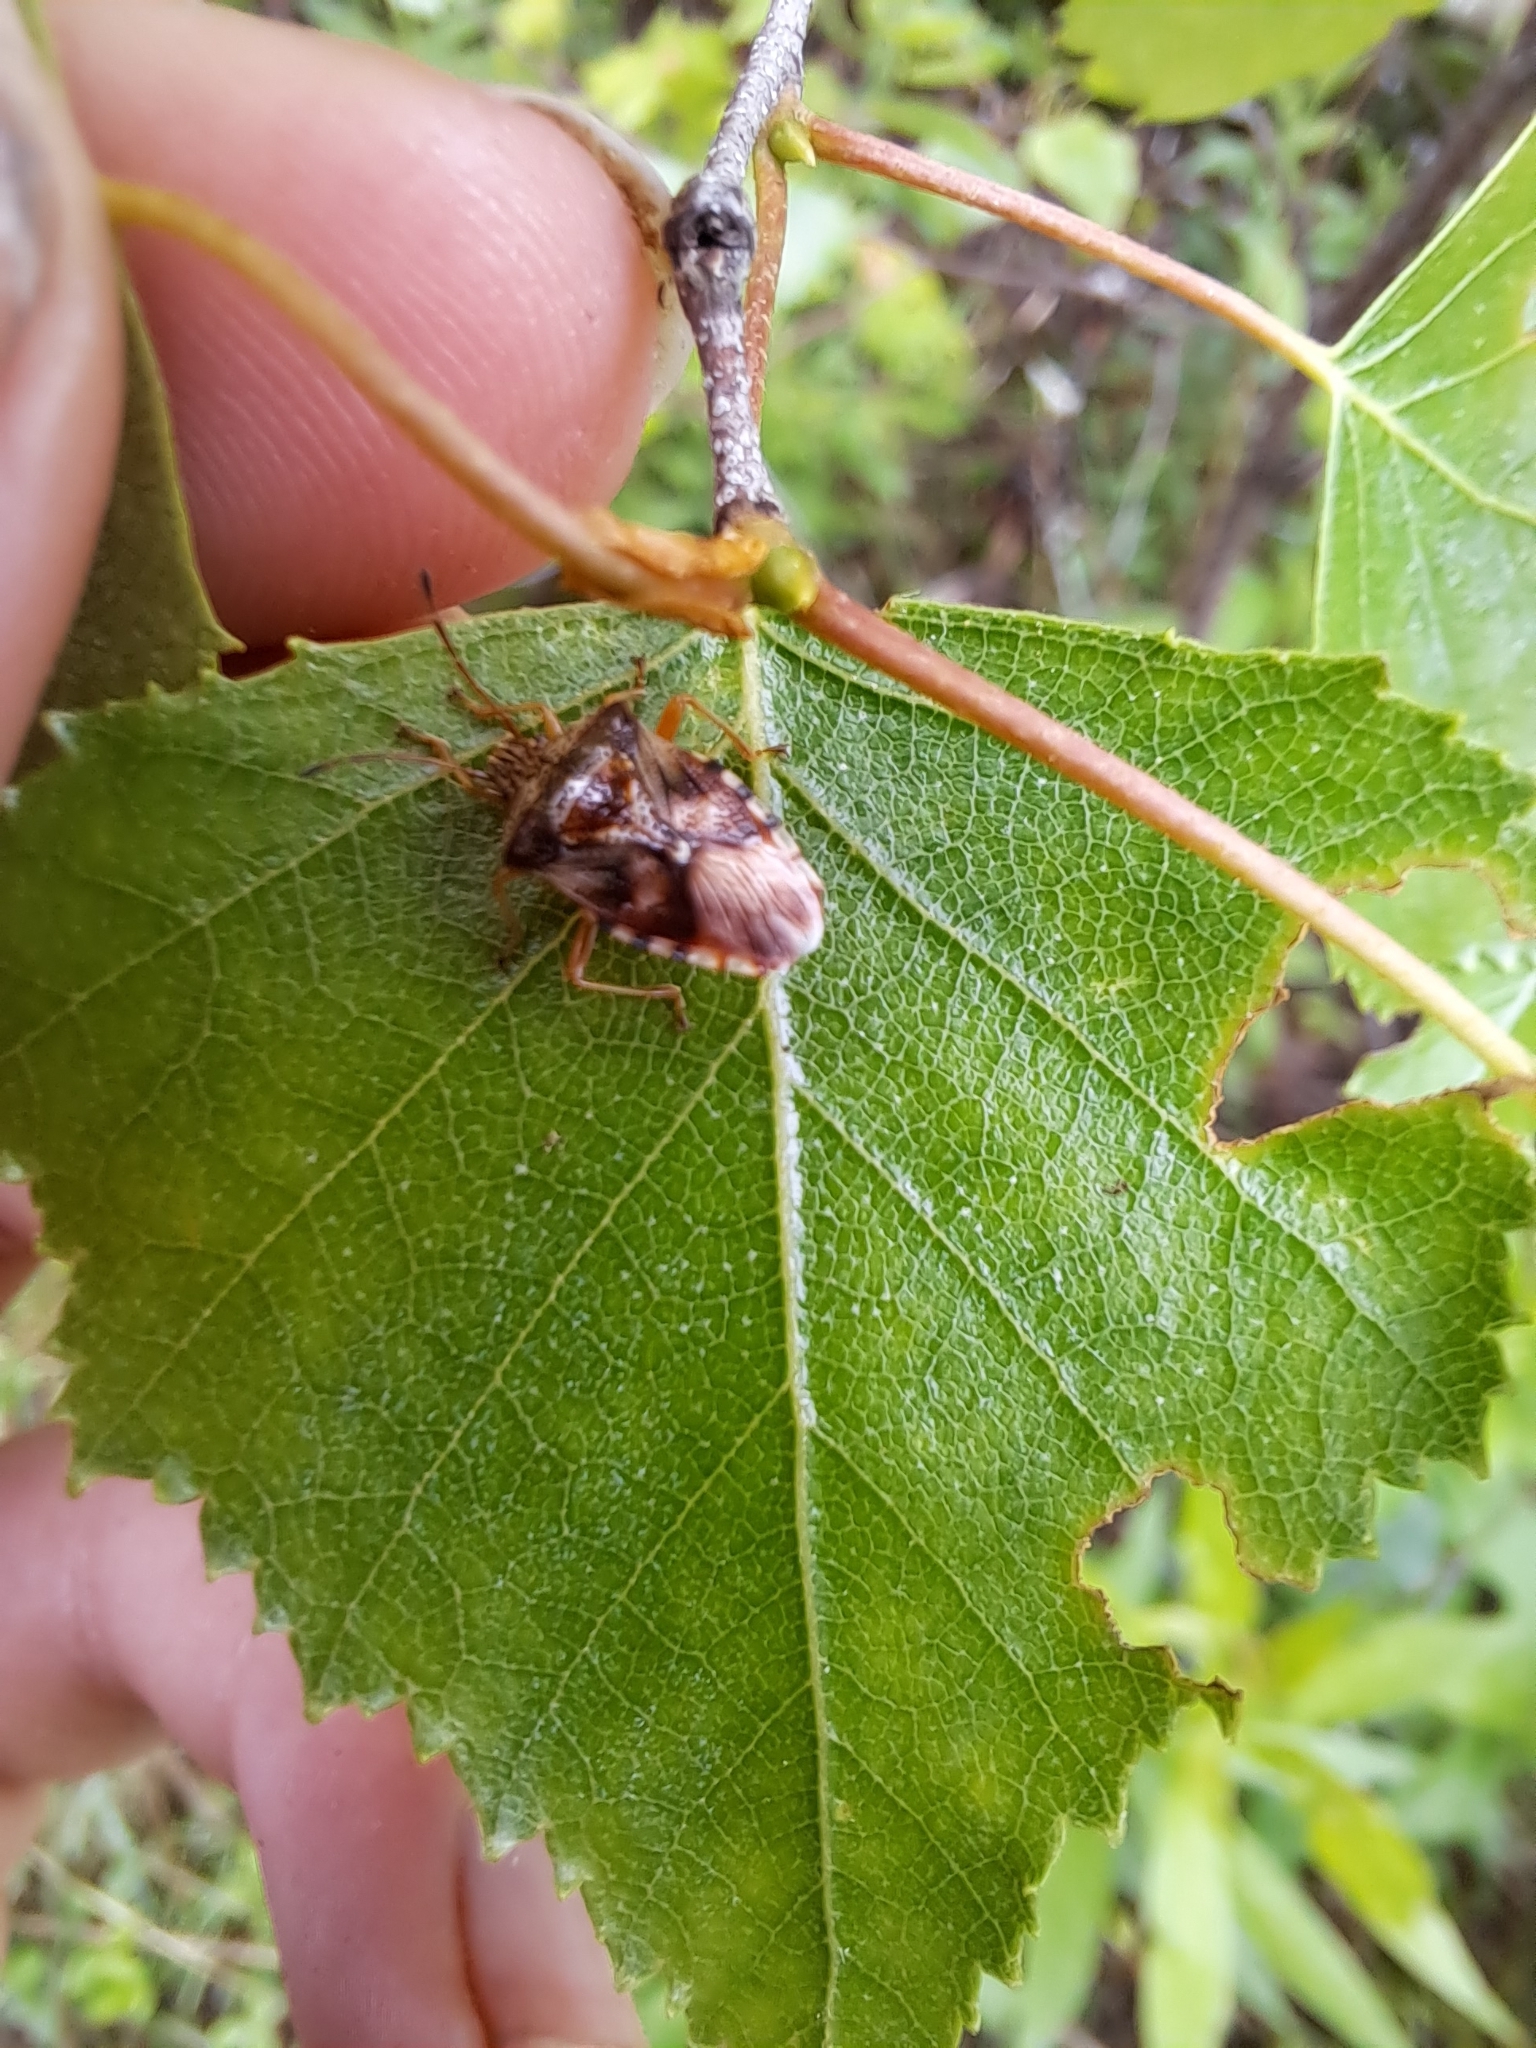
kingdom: Animalia
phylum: Arthropoda
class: Insecta
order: Hemiptera
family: Acanthosomatidae
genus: Elasmucha
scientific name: Elasmucha lateralis
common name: Shield bug
